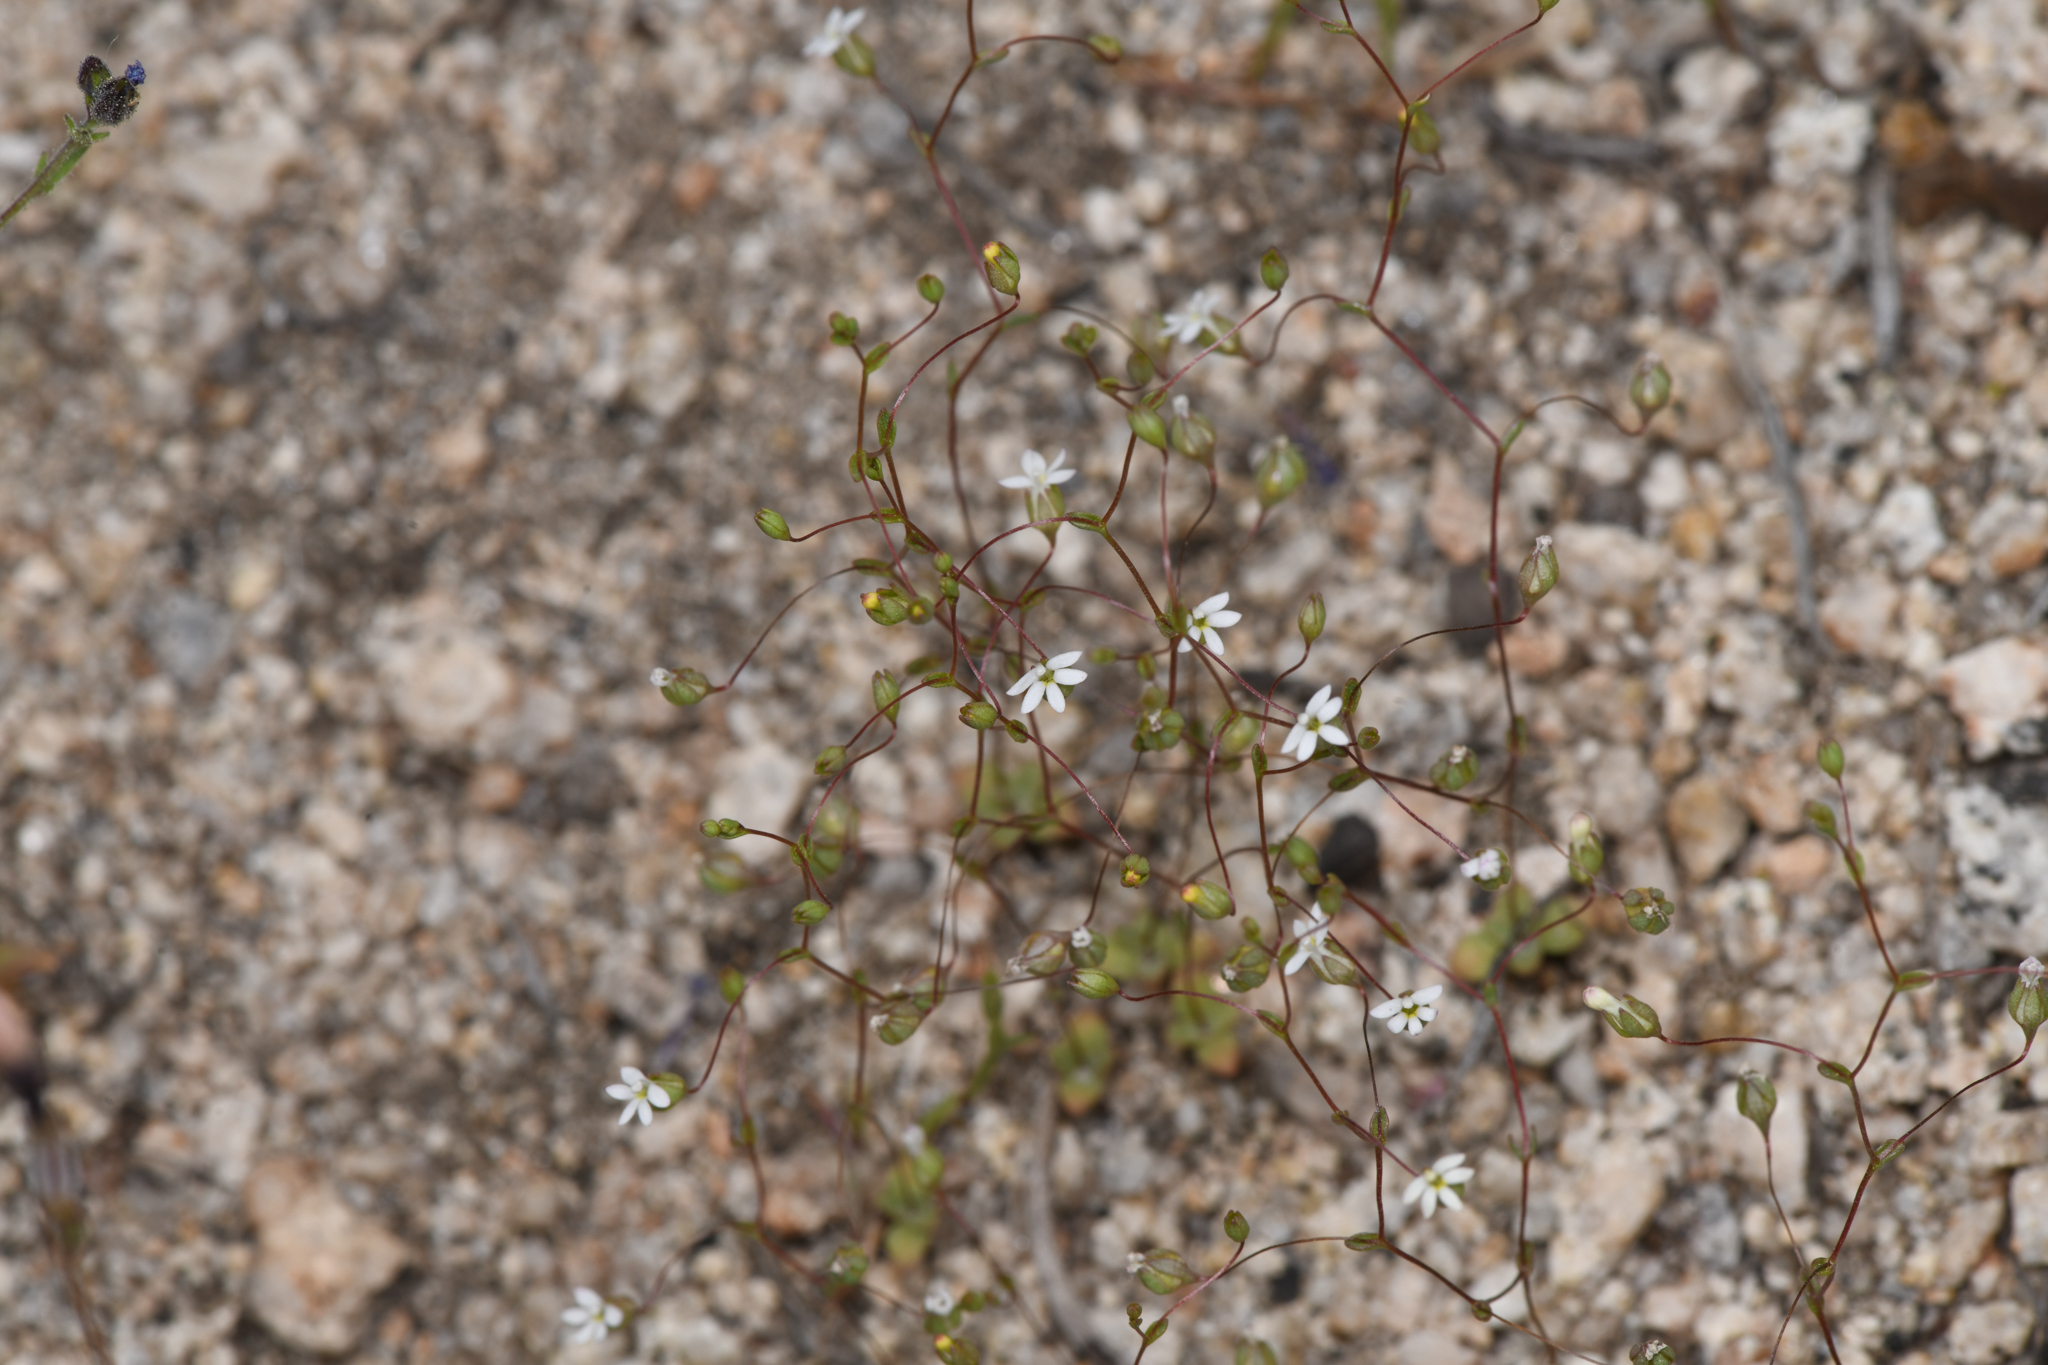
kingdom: Plantae
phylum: Tracheophyta
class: Magnoliopsida
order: Asterales
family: Campanulaceae
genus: Nemacladus
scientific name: Nemacladus sigmoideus
